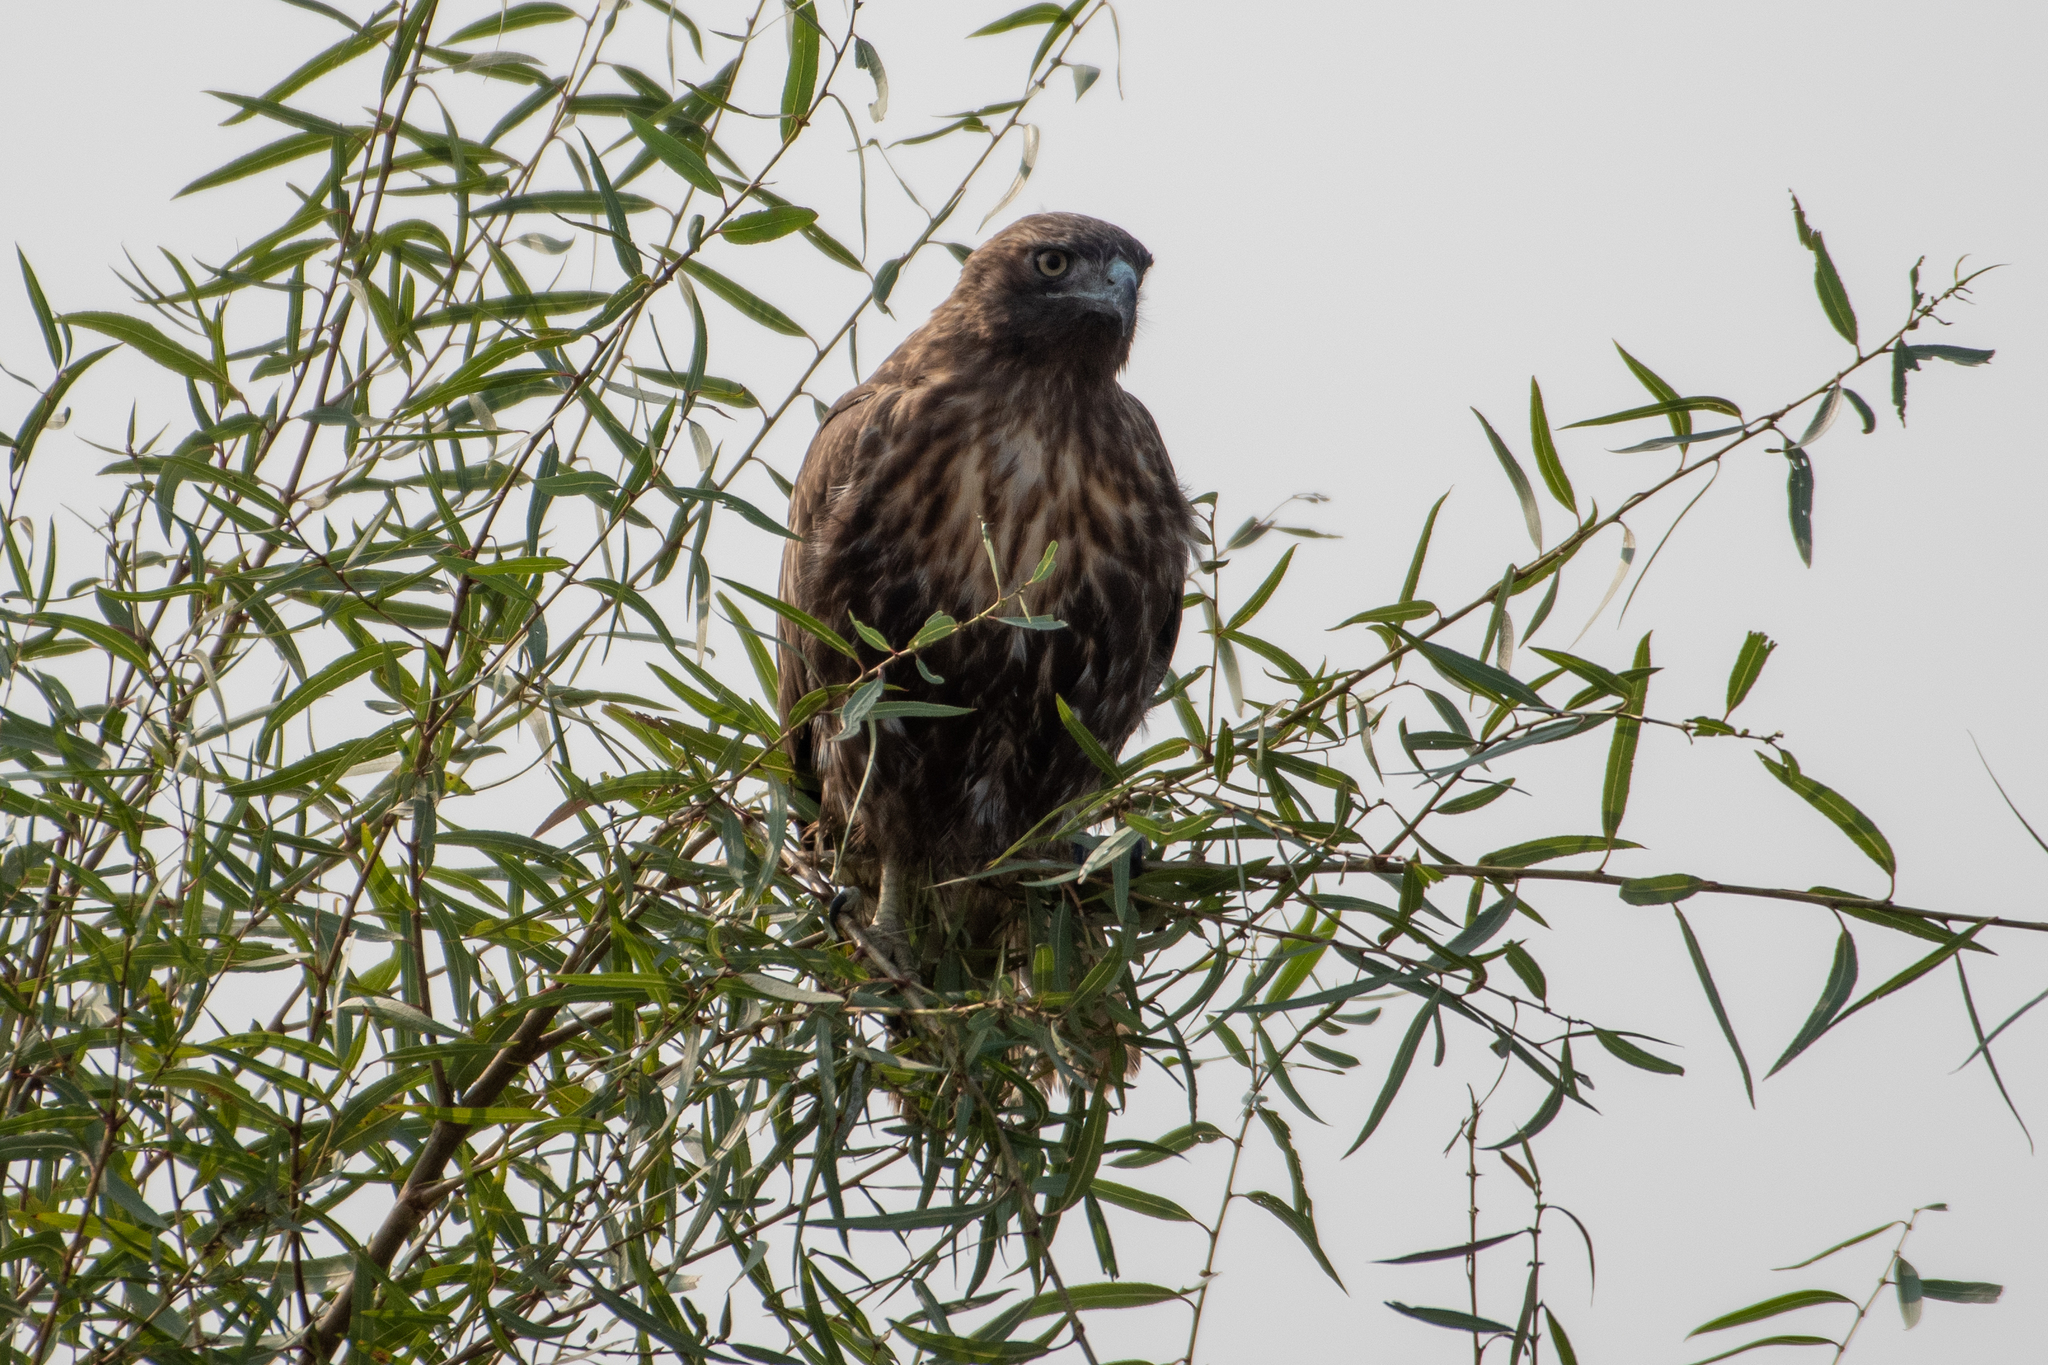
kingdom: Animalia
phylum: Chordata
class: Aves
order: Accipitriformes
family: Accipitridae
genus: Buteo
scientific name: Buteo jamaicensis
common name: Red-tailed hawk
